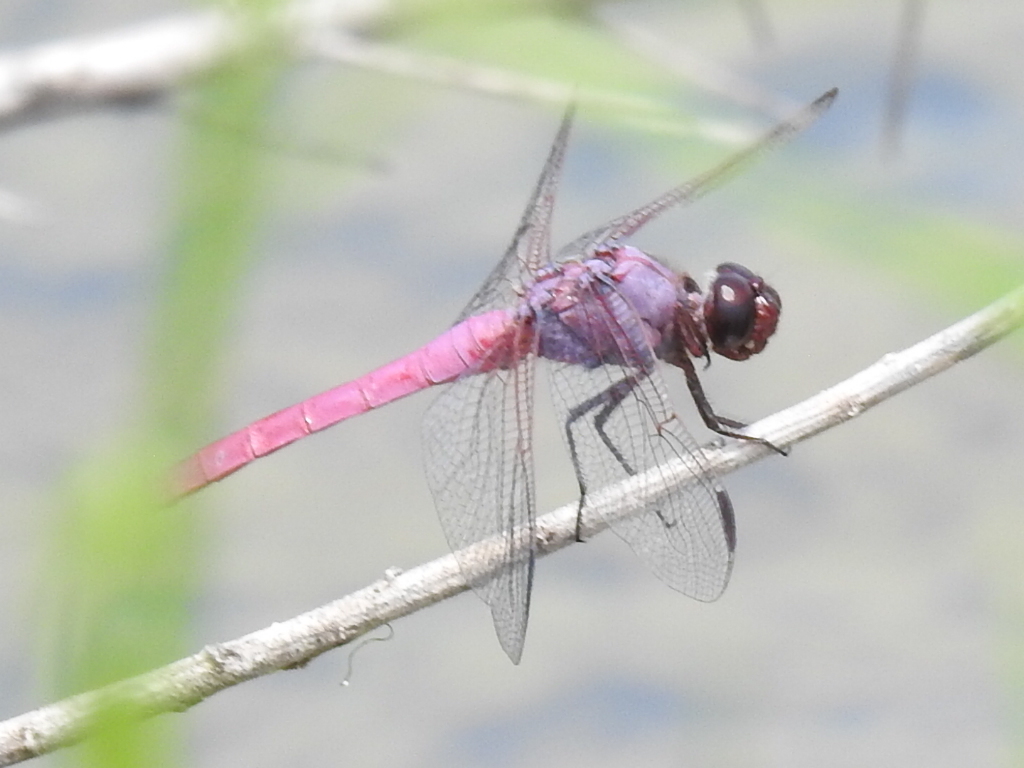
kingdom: Animalia
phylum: Arthropoda
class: Insecta
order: Odonata
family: Libellulidae
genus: Orthemis
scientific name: Orthemis ferruginea
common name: Roseate skimmer
